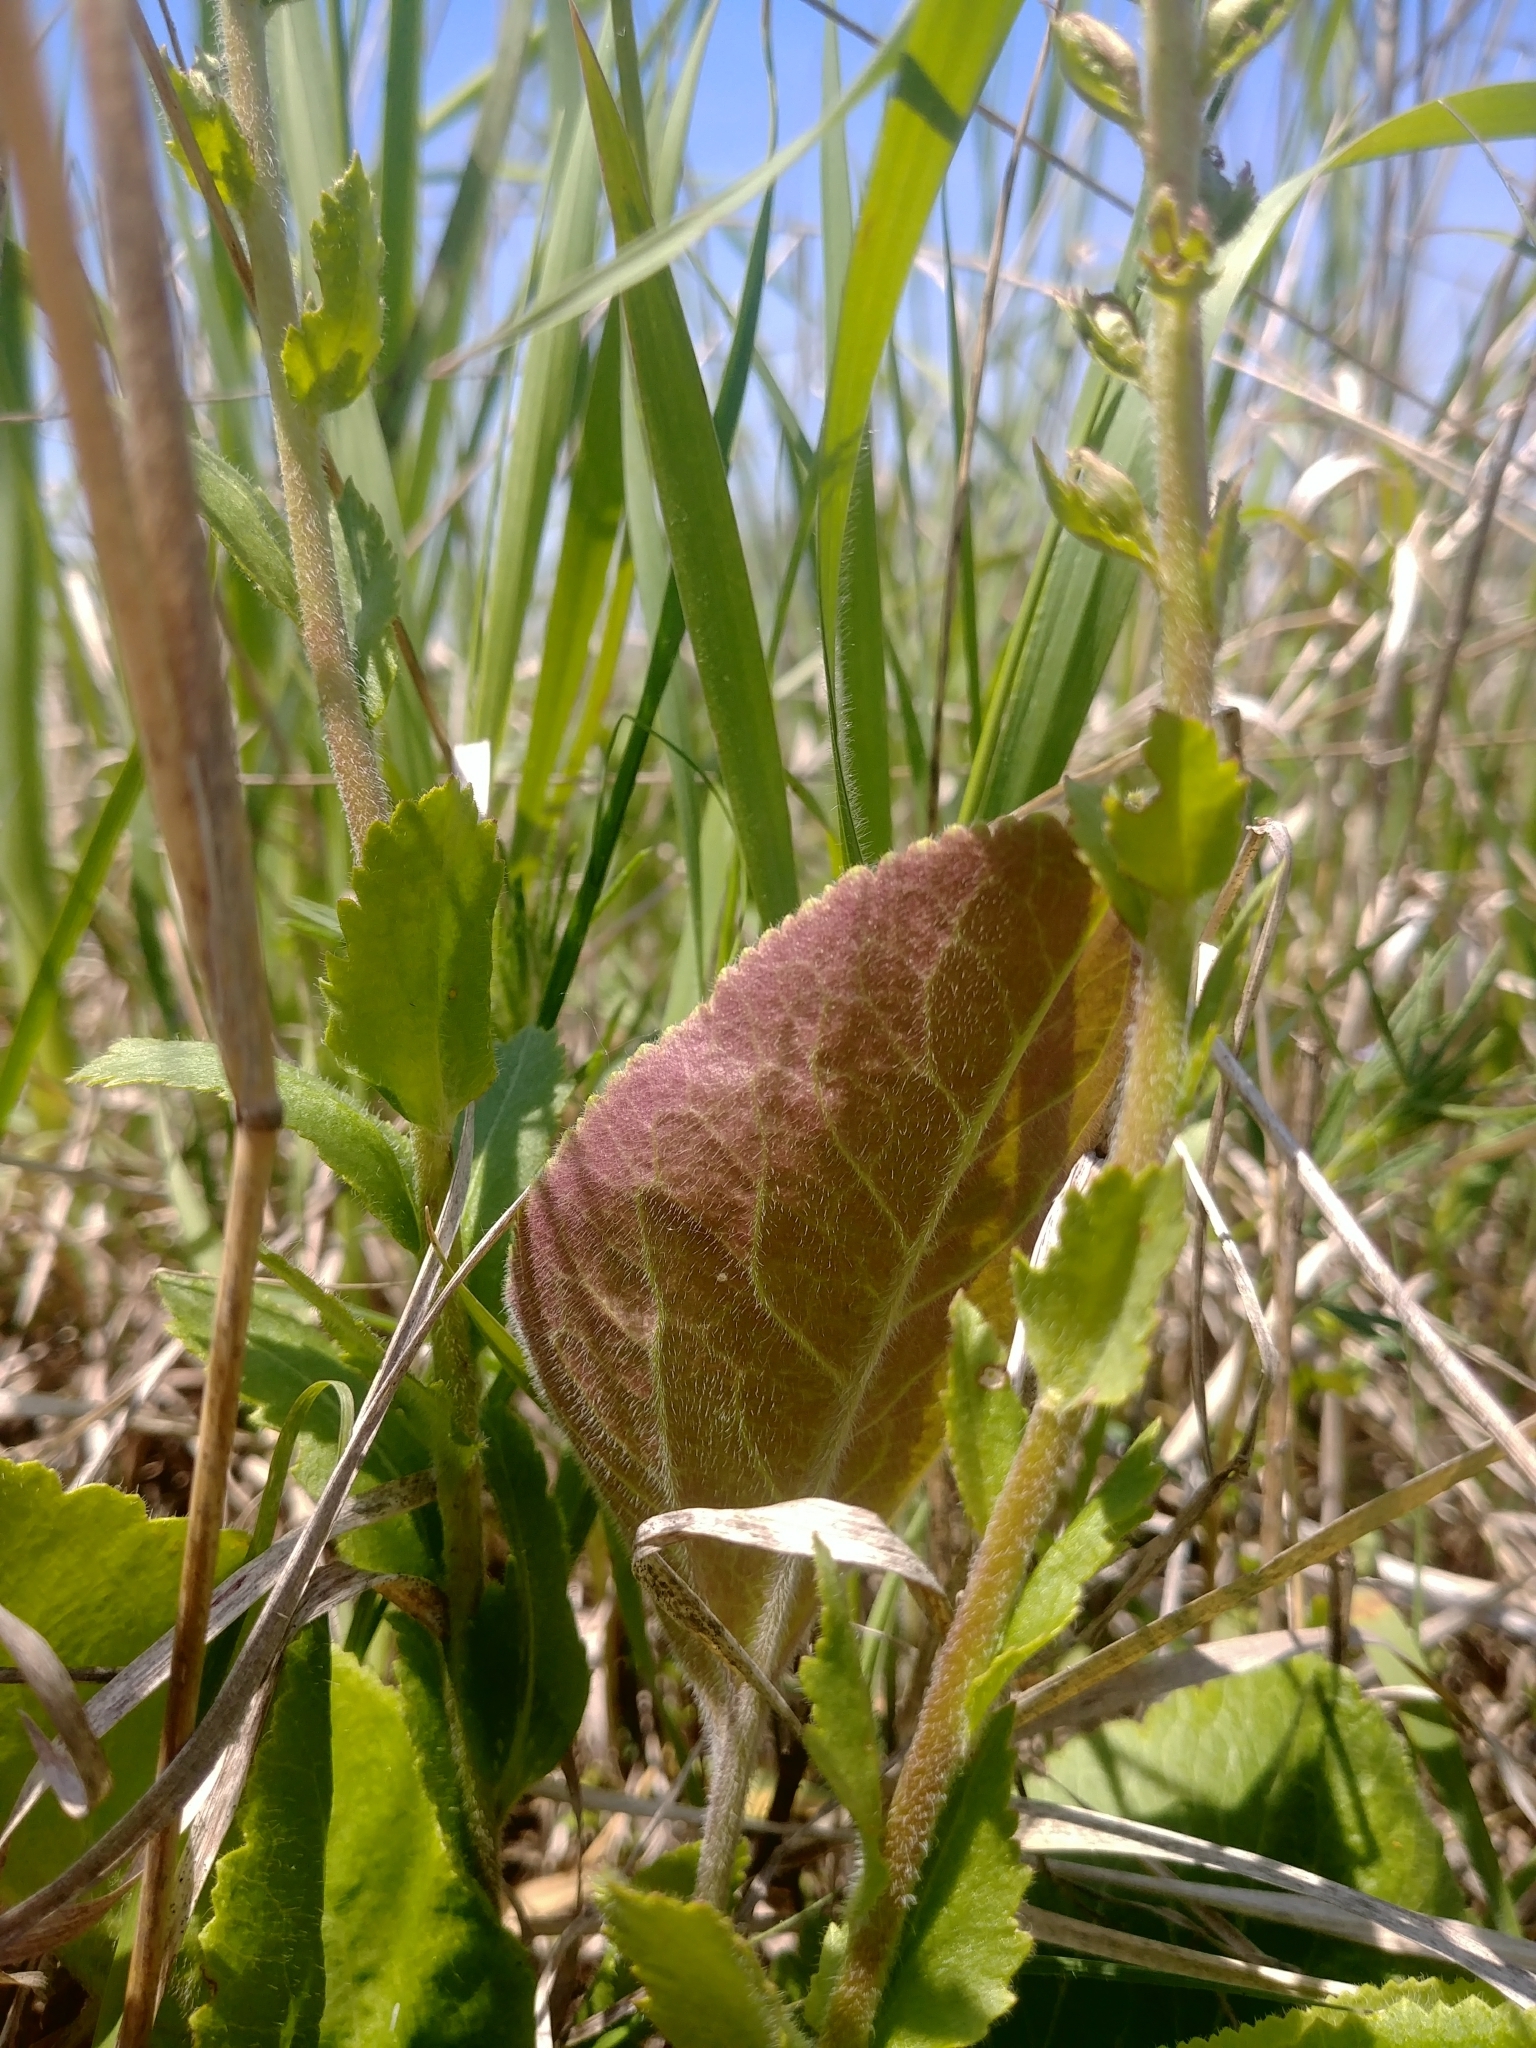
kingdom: Plantae
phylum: Tracheophyta
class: Magnoliopsida
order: Lamiales
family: Plantaginaceae
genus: Synthyris
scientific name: Synthyris bullii
